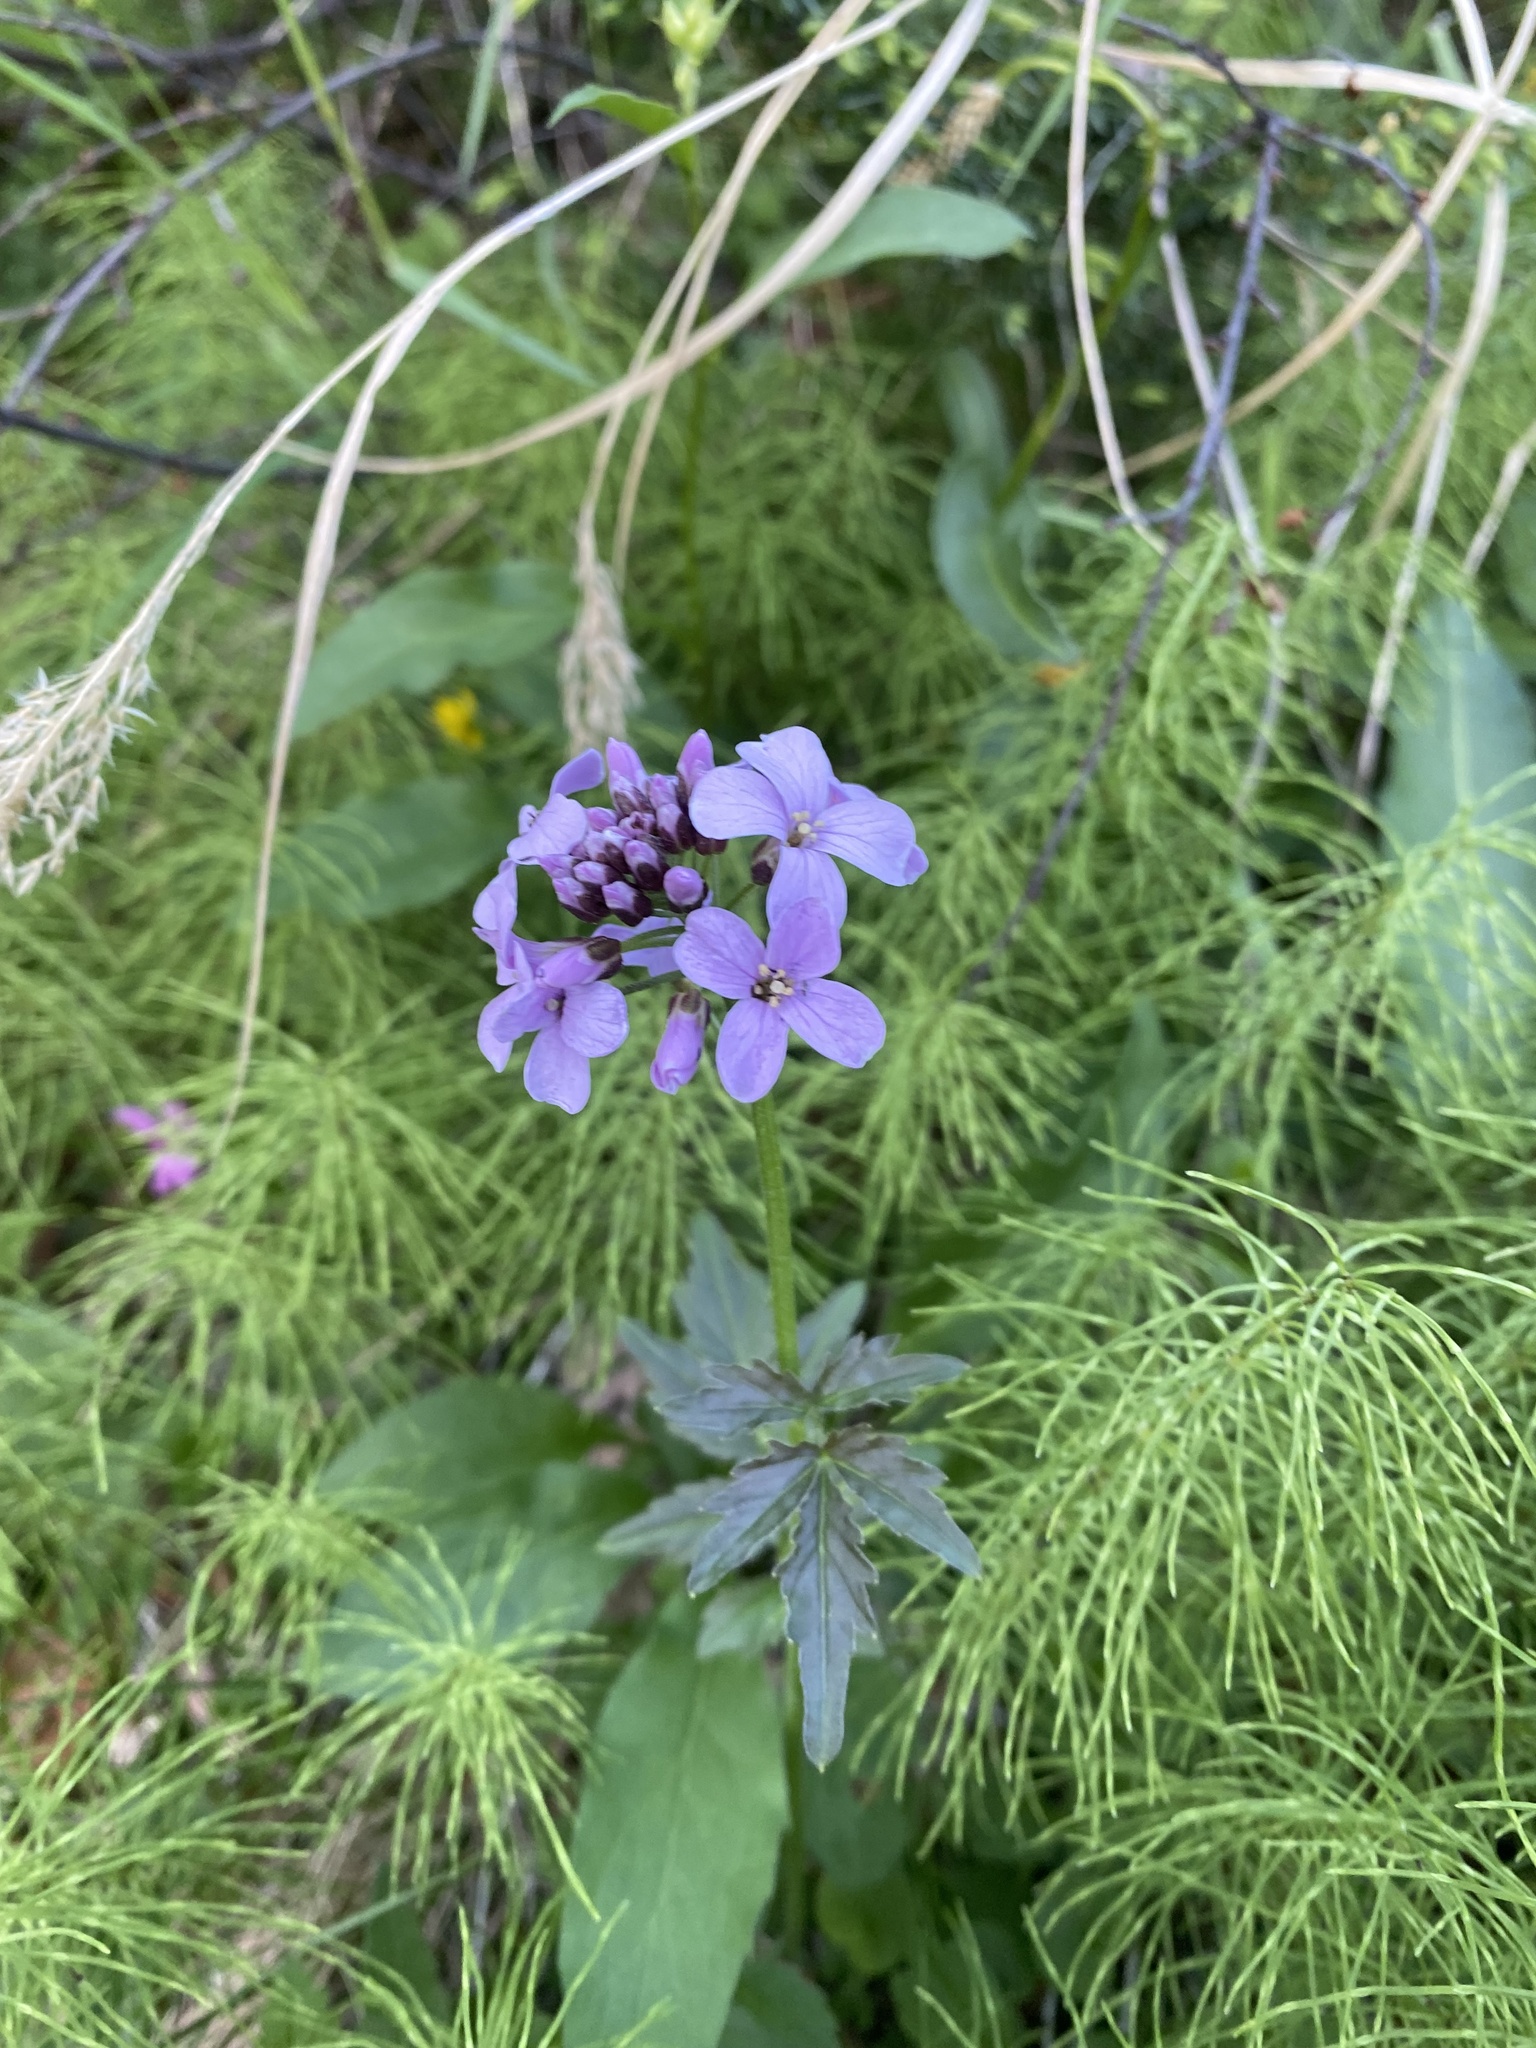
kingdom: Plantae
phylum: Tracheophyta
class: Magnoliopsida
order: Brassicales
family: Brassicaceae
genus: Cardamine
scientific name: Cardamine macrophylla
